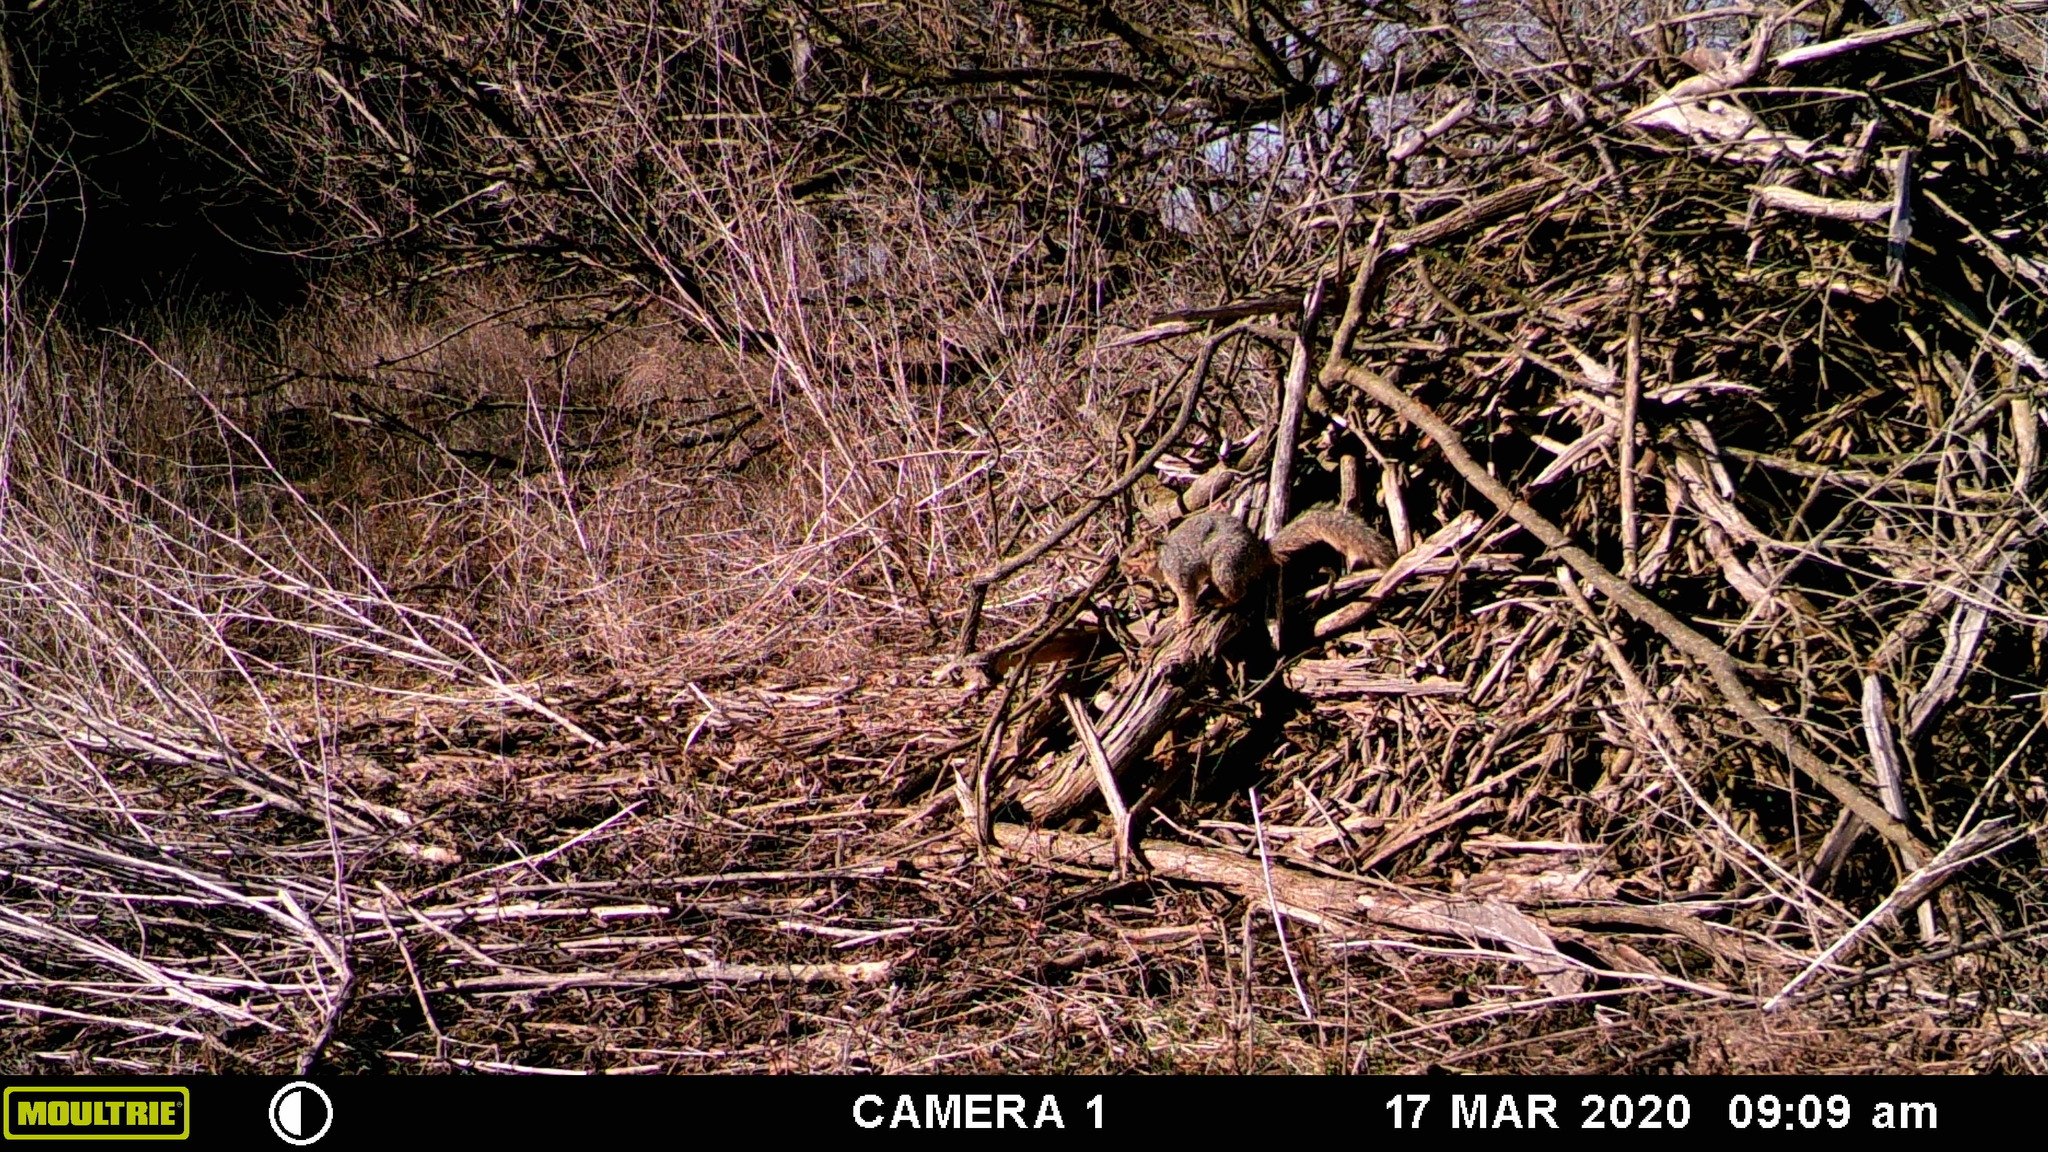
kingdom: Animalia
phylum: Chordata
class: Mammalia
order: Rodentia
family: Sciuridae
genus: Sciurus
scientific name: Sciurus niger
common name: Fox squirrel
